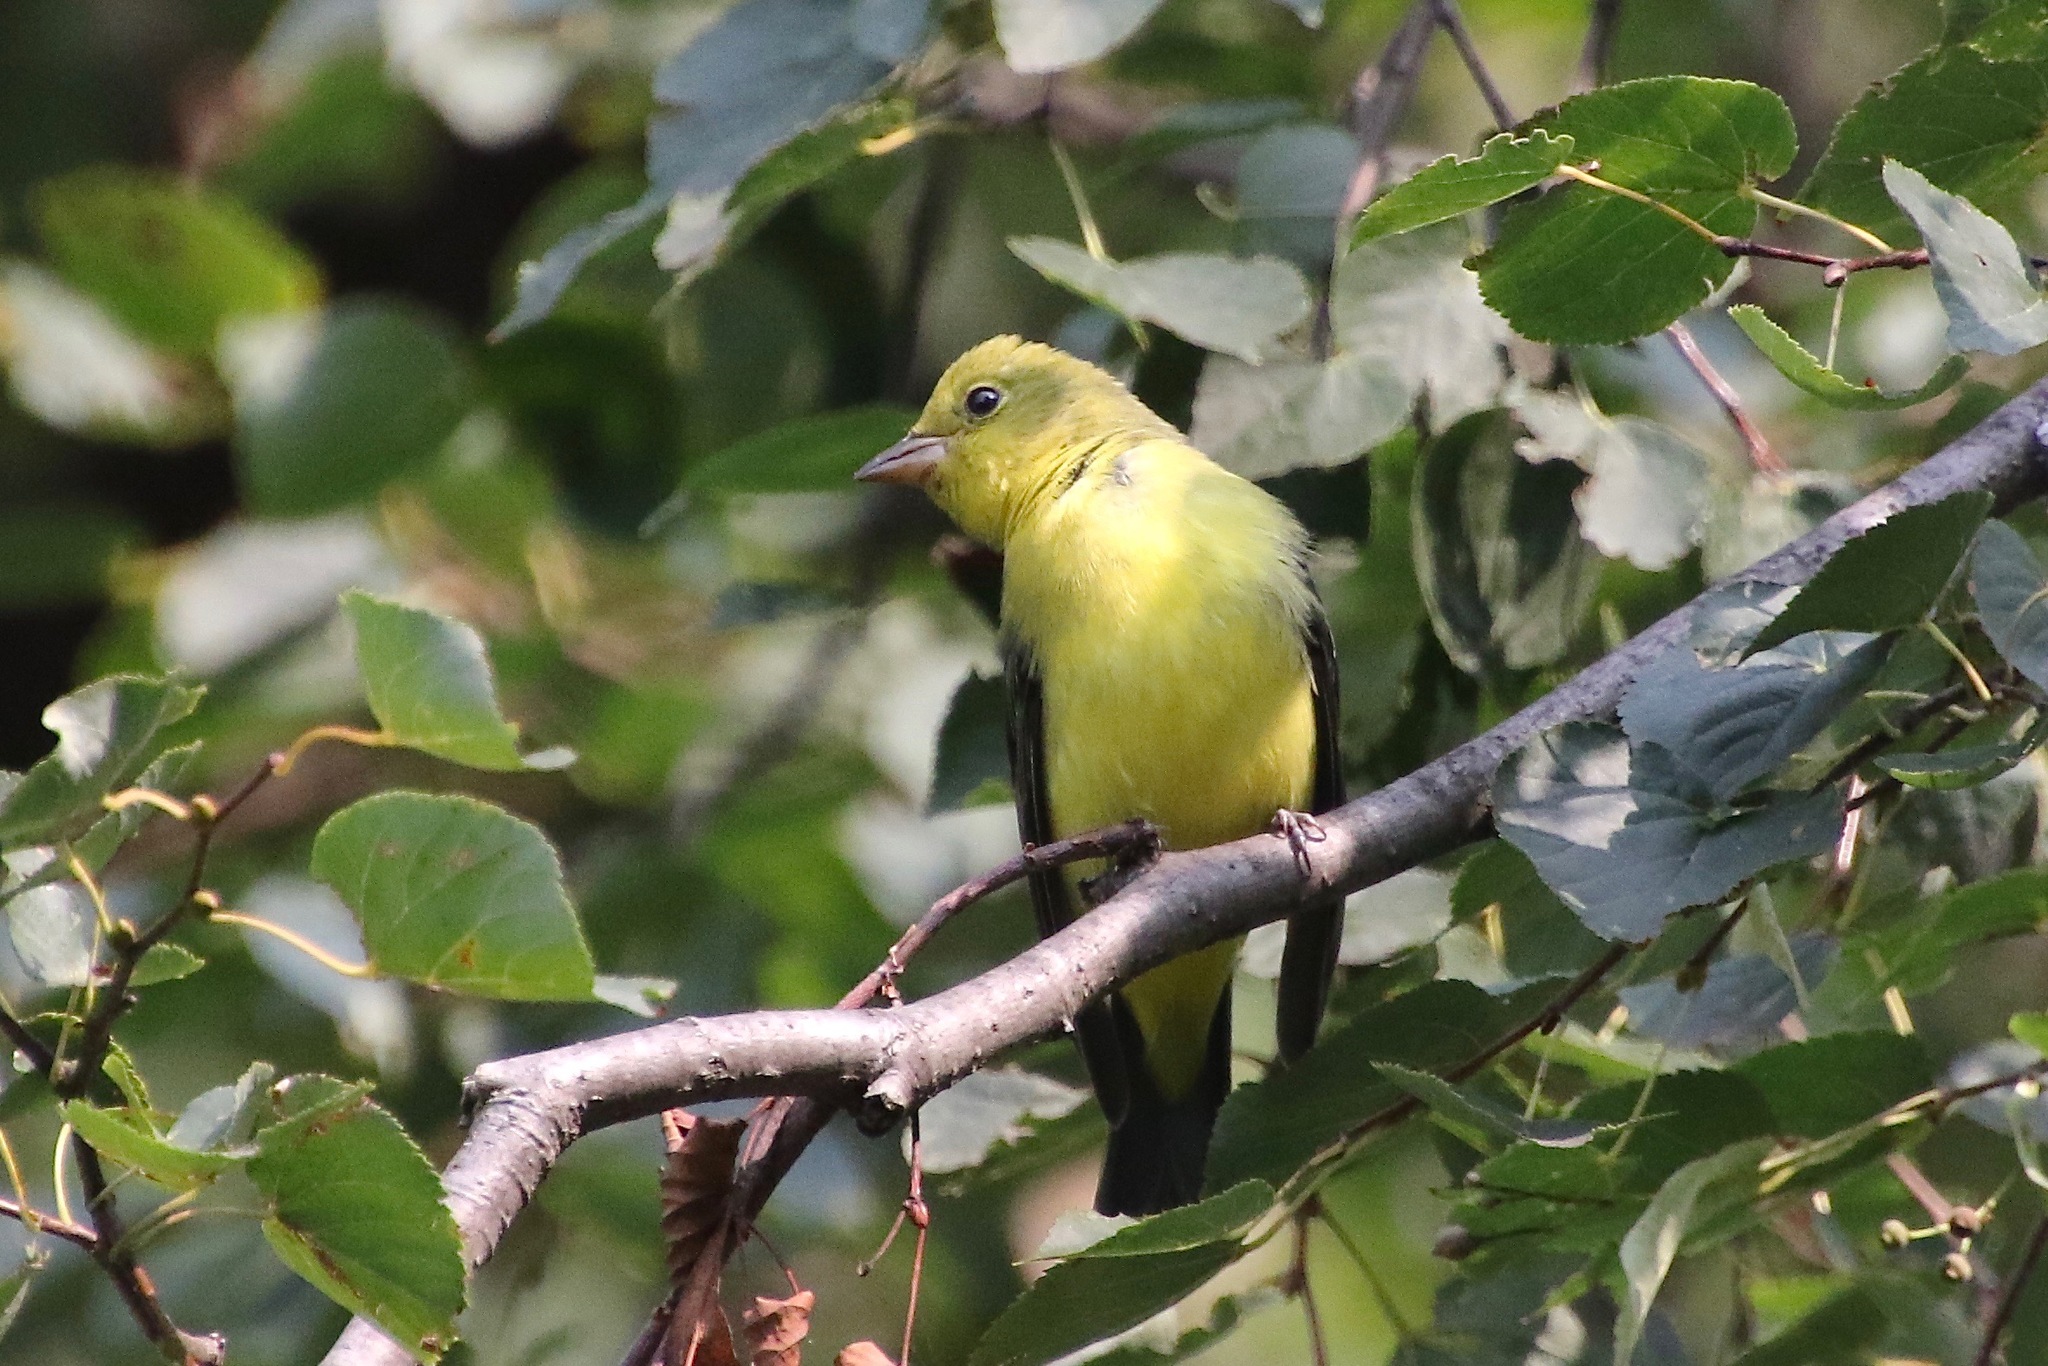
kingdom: Animalia
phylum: Chordata
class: Aves
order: Passeriformes
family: Cardinalidae
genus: Piranga
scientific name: Piranga olivacea
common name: Scarlet tanager
